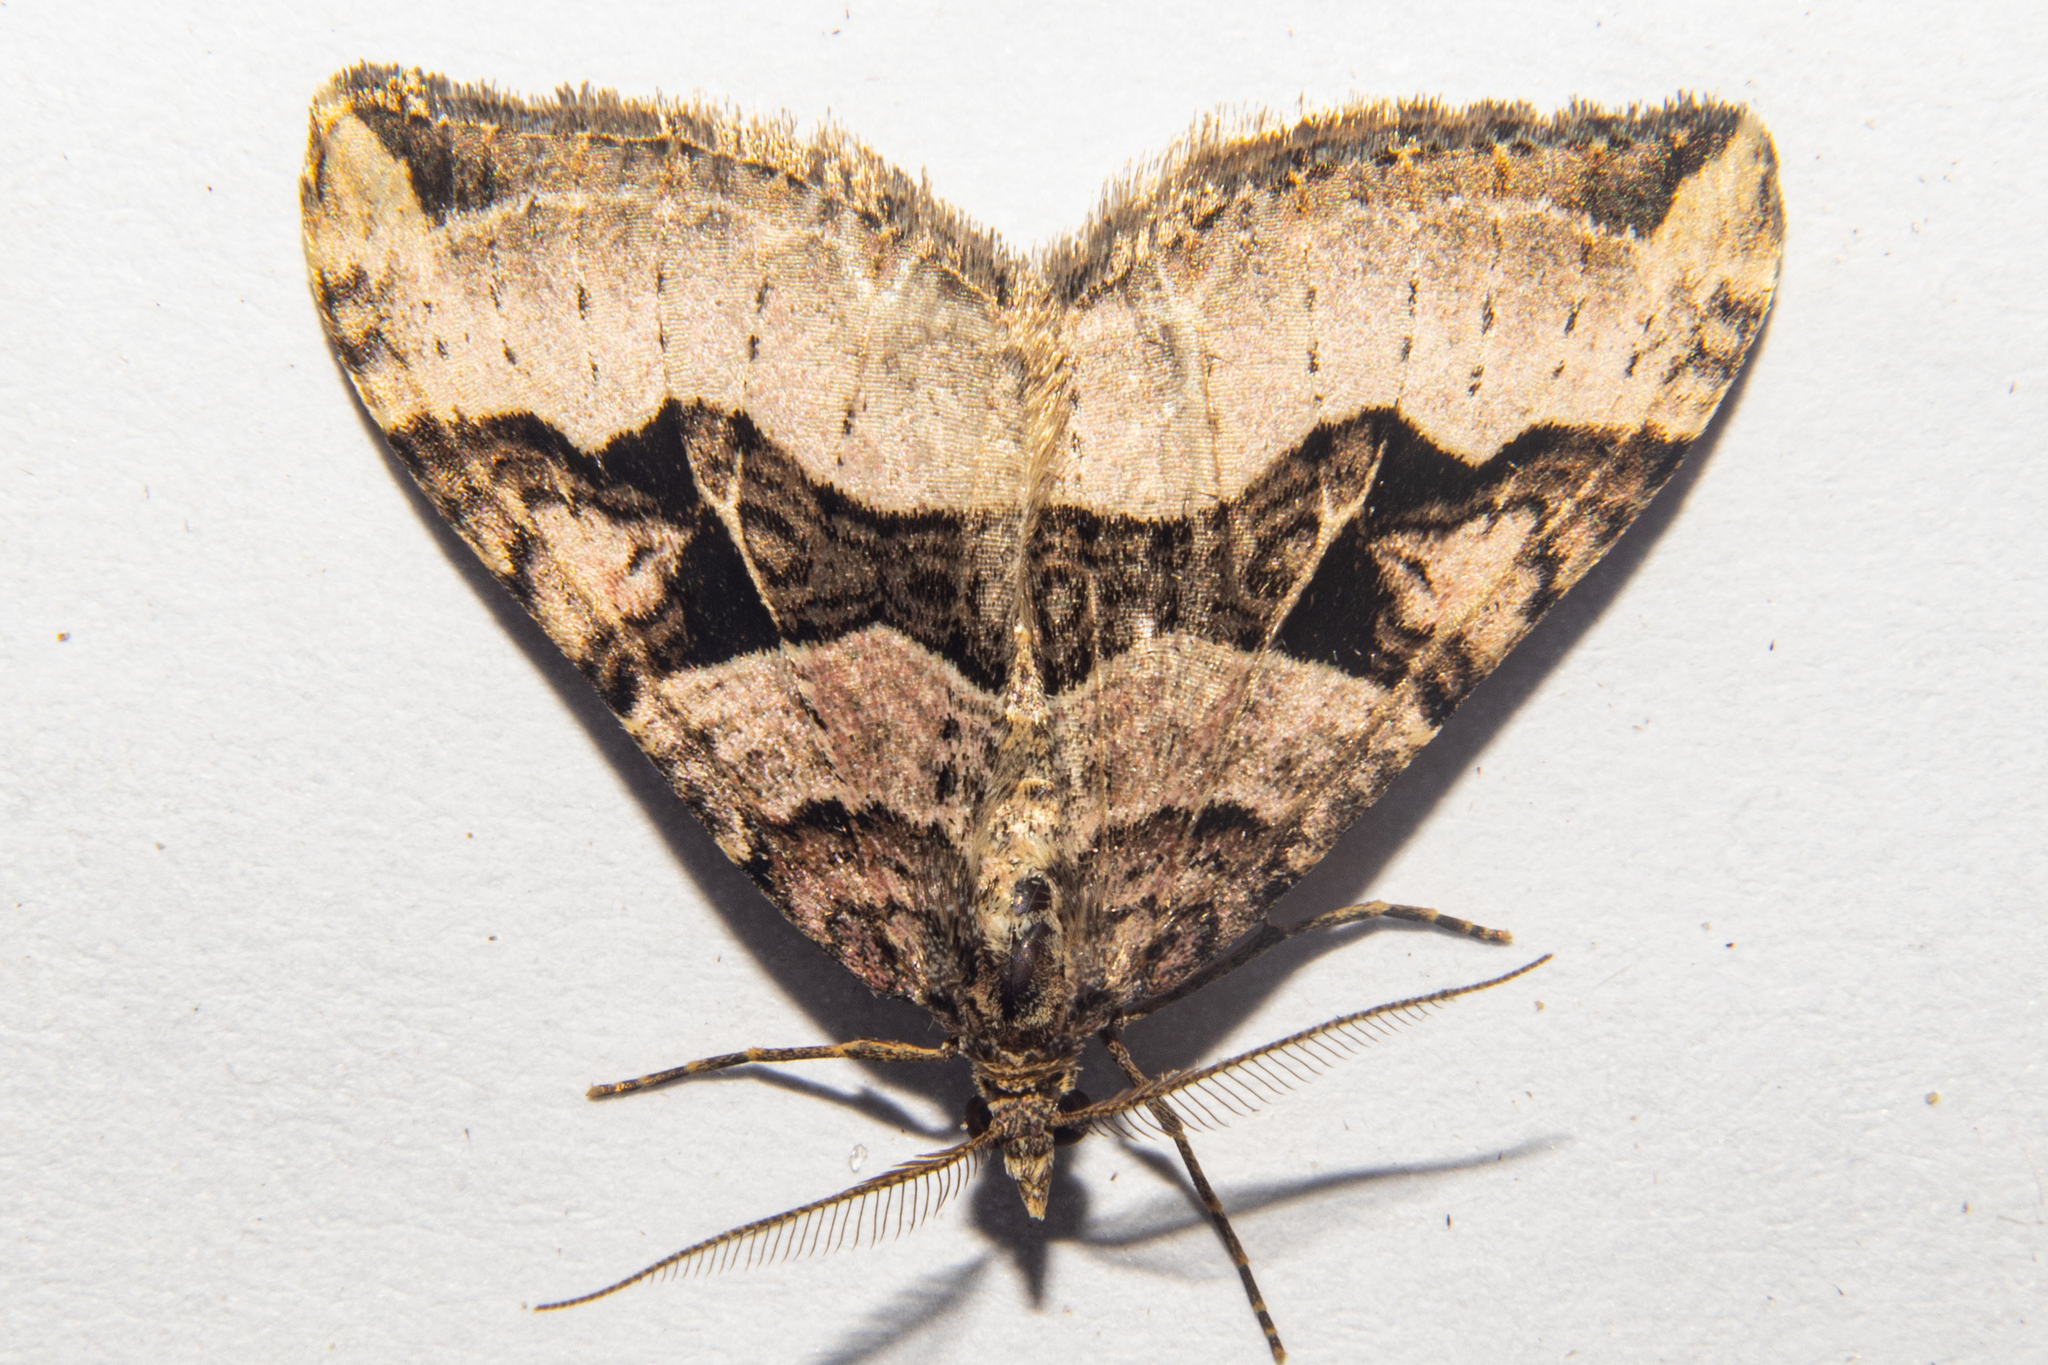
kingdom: Animalia
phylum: Arthropoda
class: Insecta
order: Lepidoptera
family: Geometridae
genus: Xanthorhoe
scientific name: Xanthorhoe semifissata
